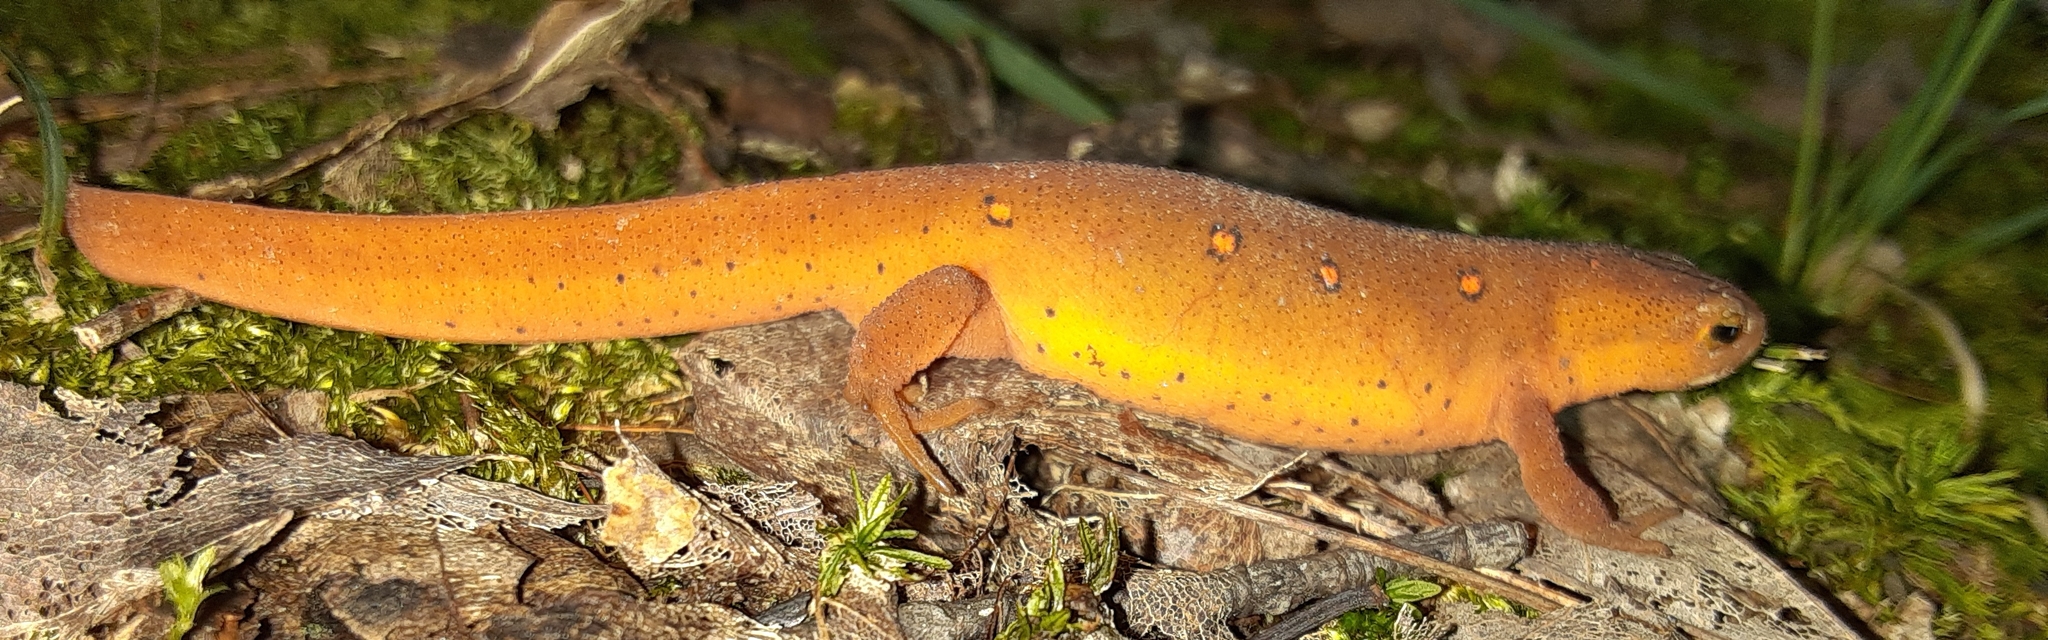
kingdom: Animalia
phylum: Chordata
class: Amphibia
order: Caudata
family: Salamandridae
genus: Notophthalmus
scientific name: Notophthalmus viridescens
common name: Eastern newt
